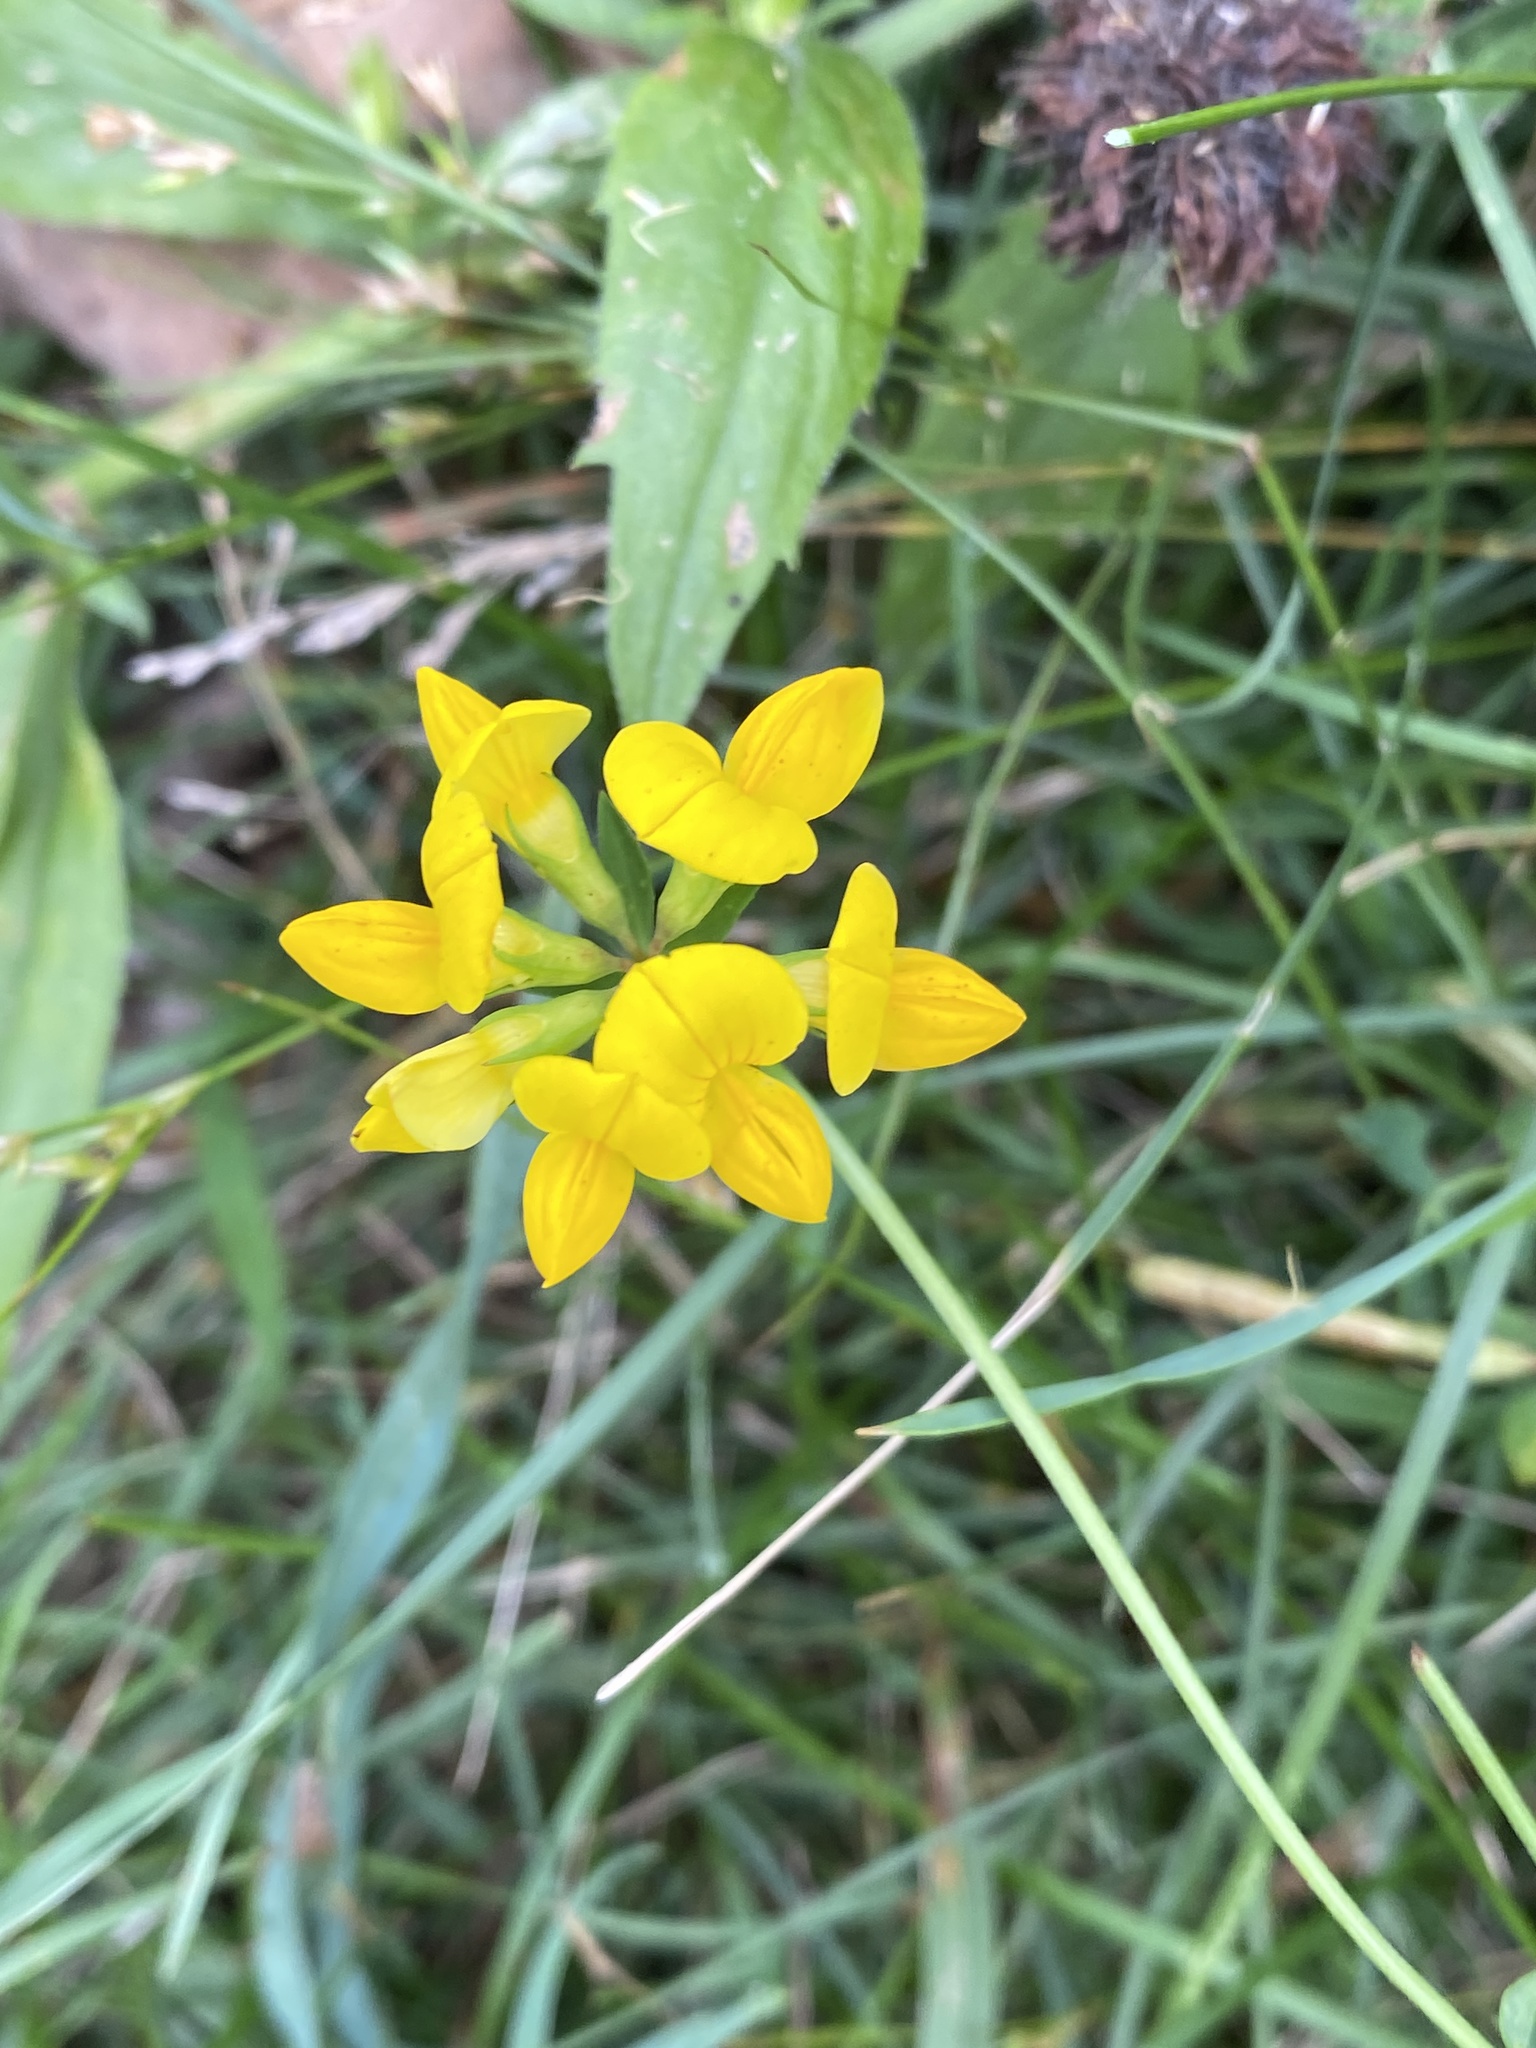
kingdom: Plantae
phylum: Tracheophyta
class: Magnoliopsida
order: Fabales
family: Fabaceae
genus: Lotus
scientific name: Lotus corniculatus
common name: Common bird's-foot-trefoil
